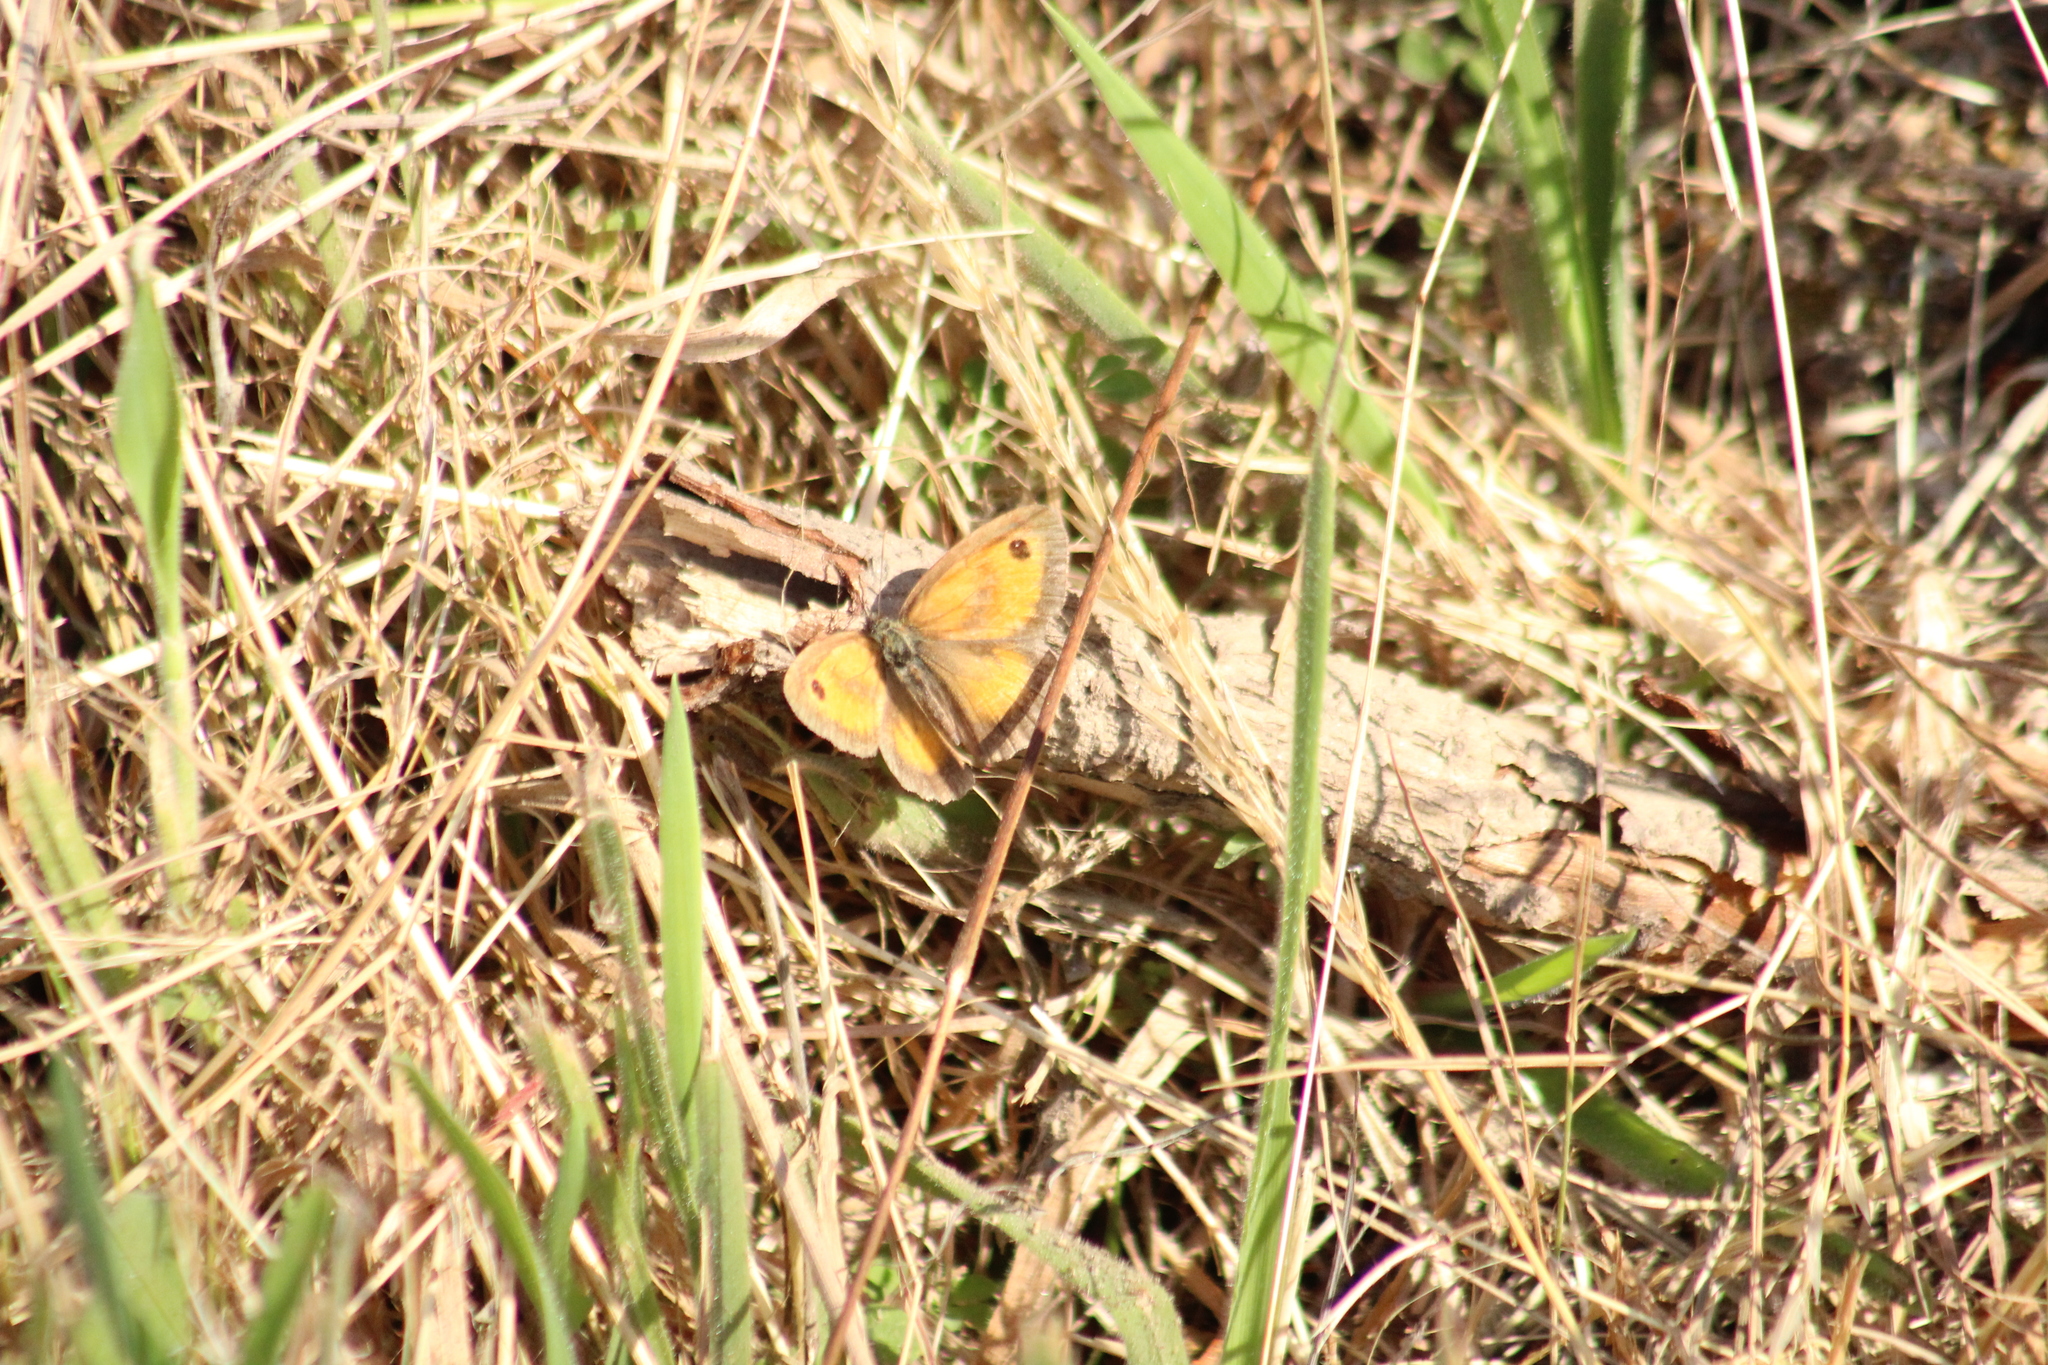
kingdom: Animalia
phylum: Arthropoda
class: Insecta
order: Lepidoptera
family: Nymphalidae
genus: Pyronia
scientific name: Pyronia tithonus
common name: Gatekeeper
